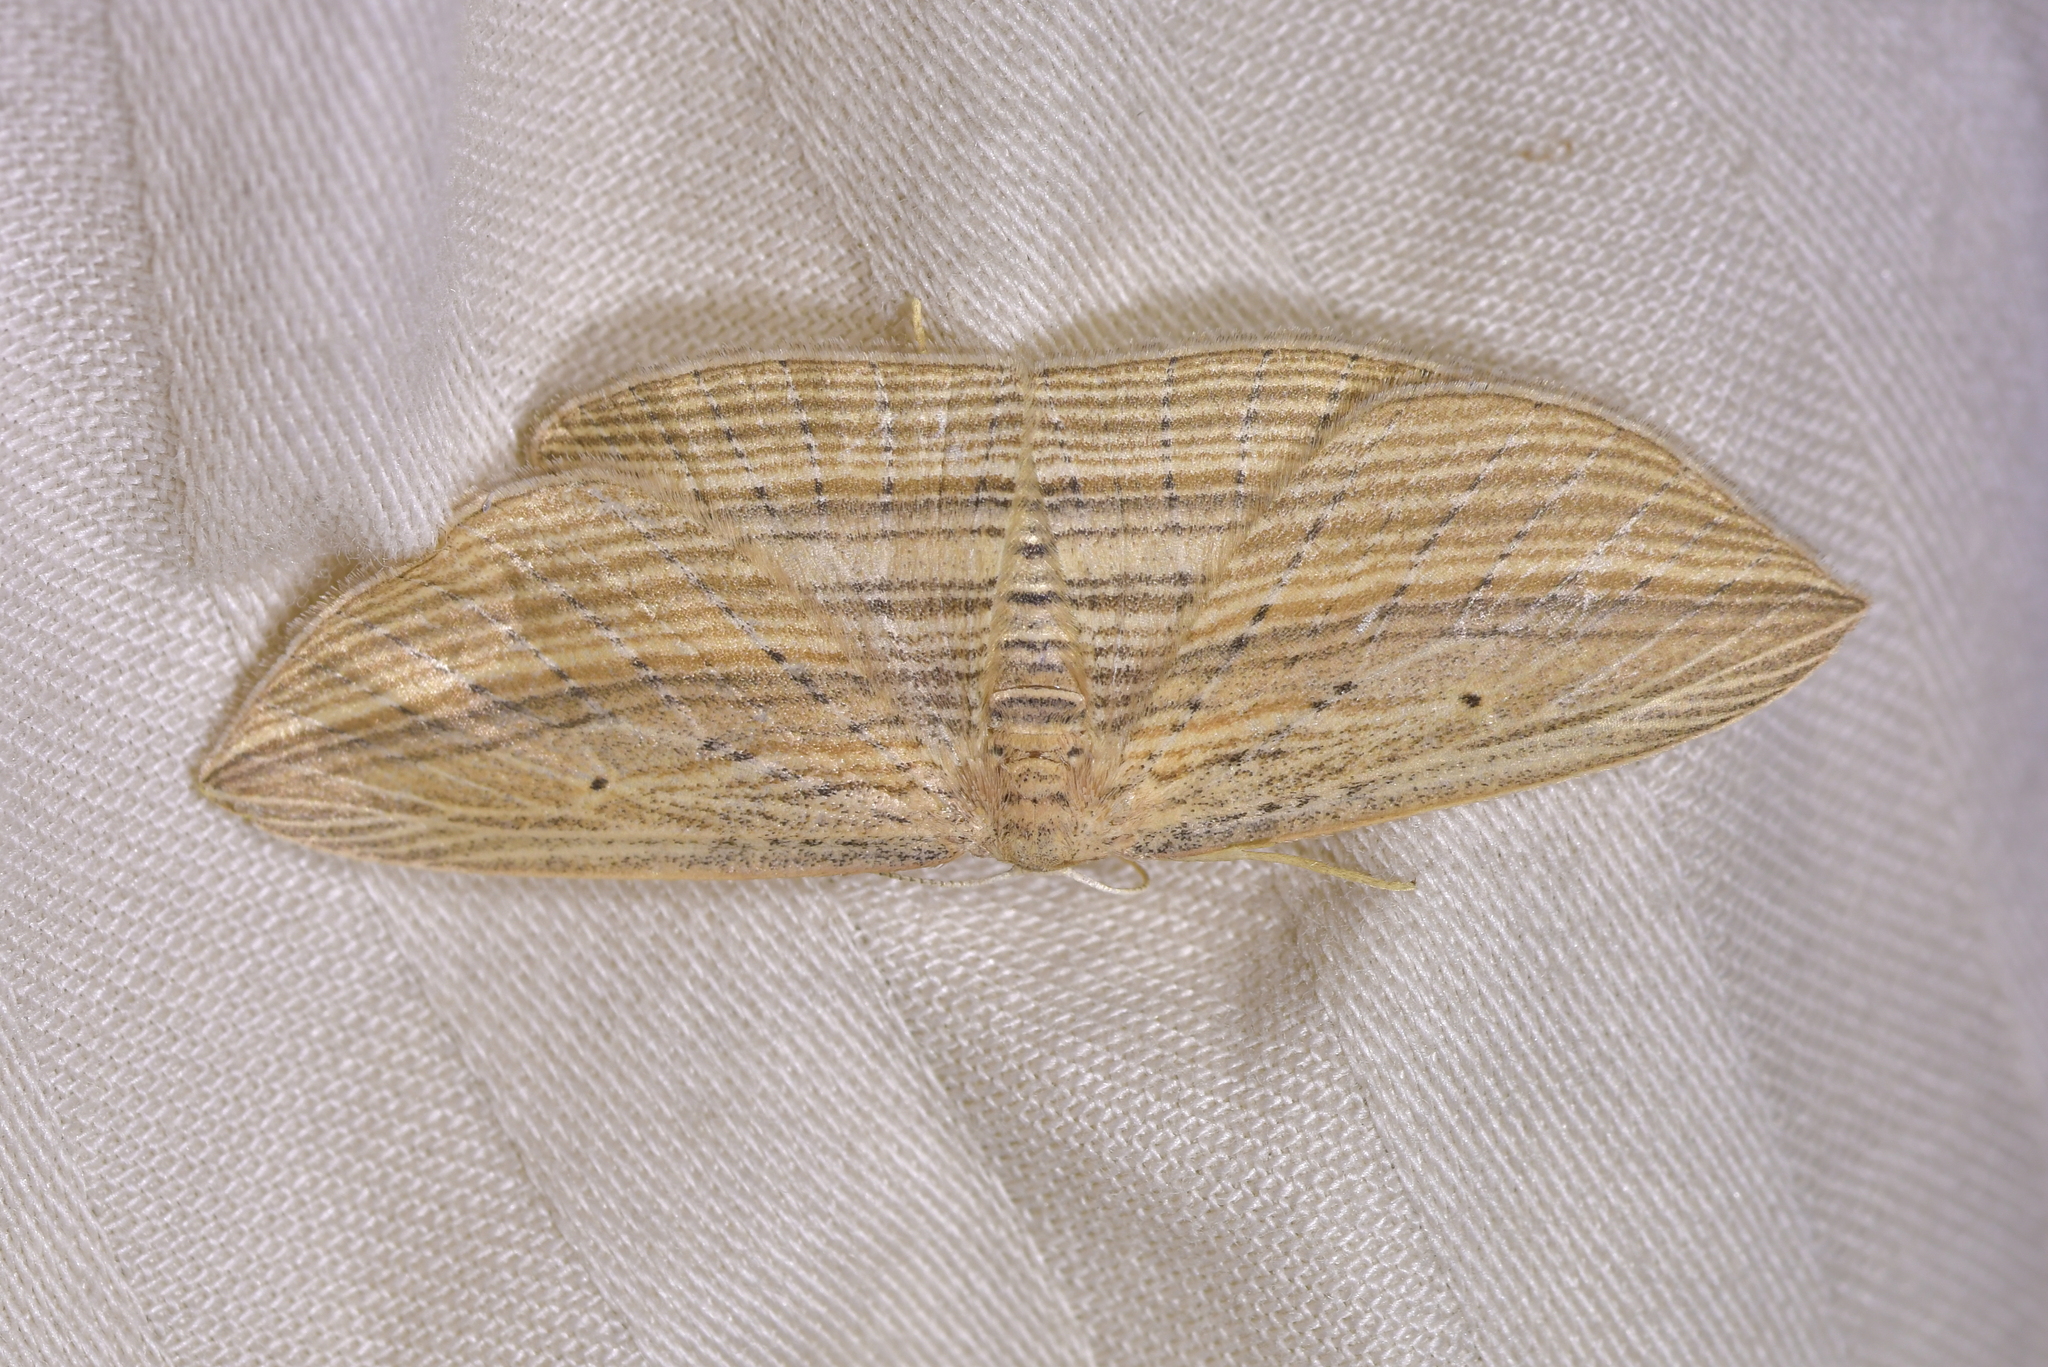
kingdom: Animalia
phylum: Arthropoda
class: Insecta
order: Lepidoptera
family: Geometridae
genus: Epiphryne
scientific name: Epiphryne verriculata
